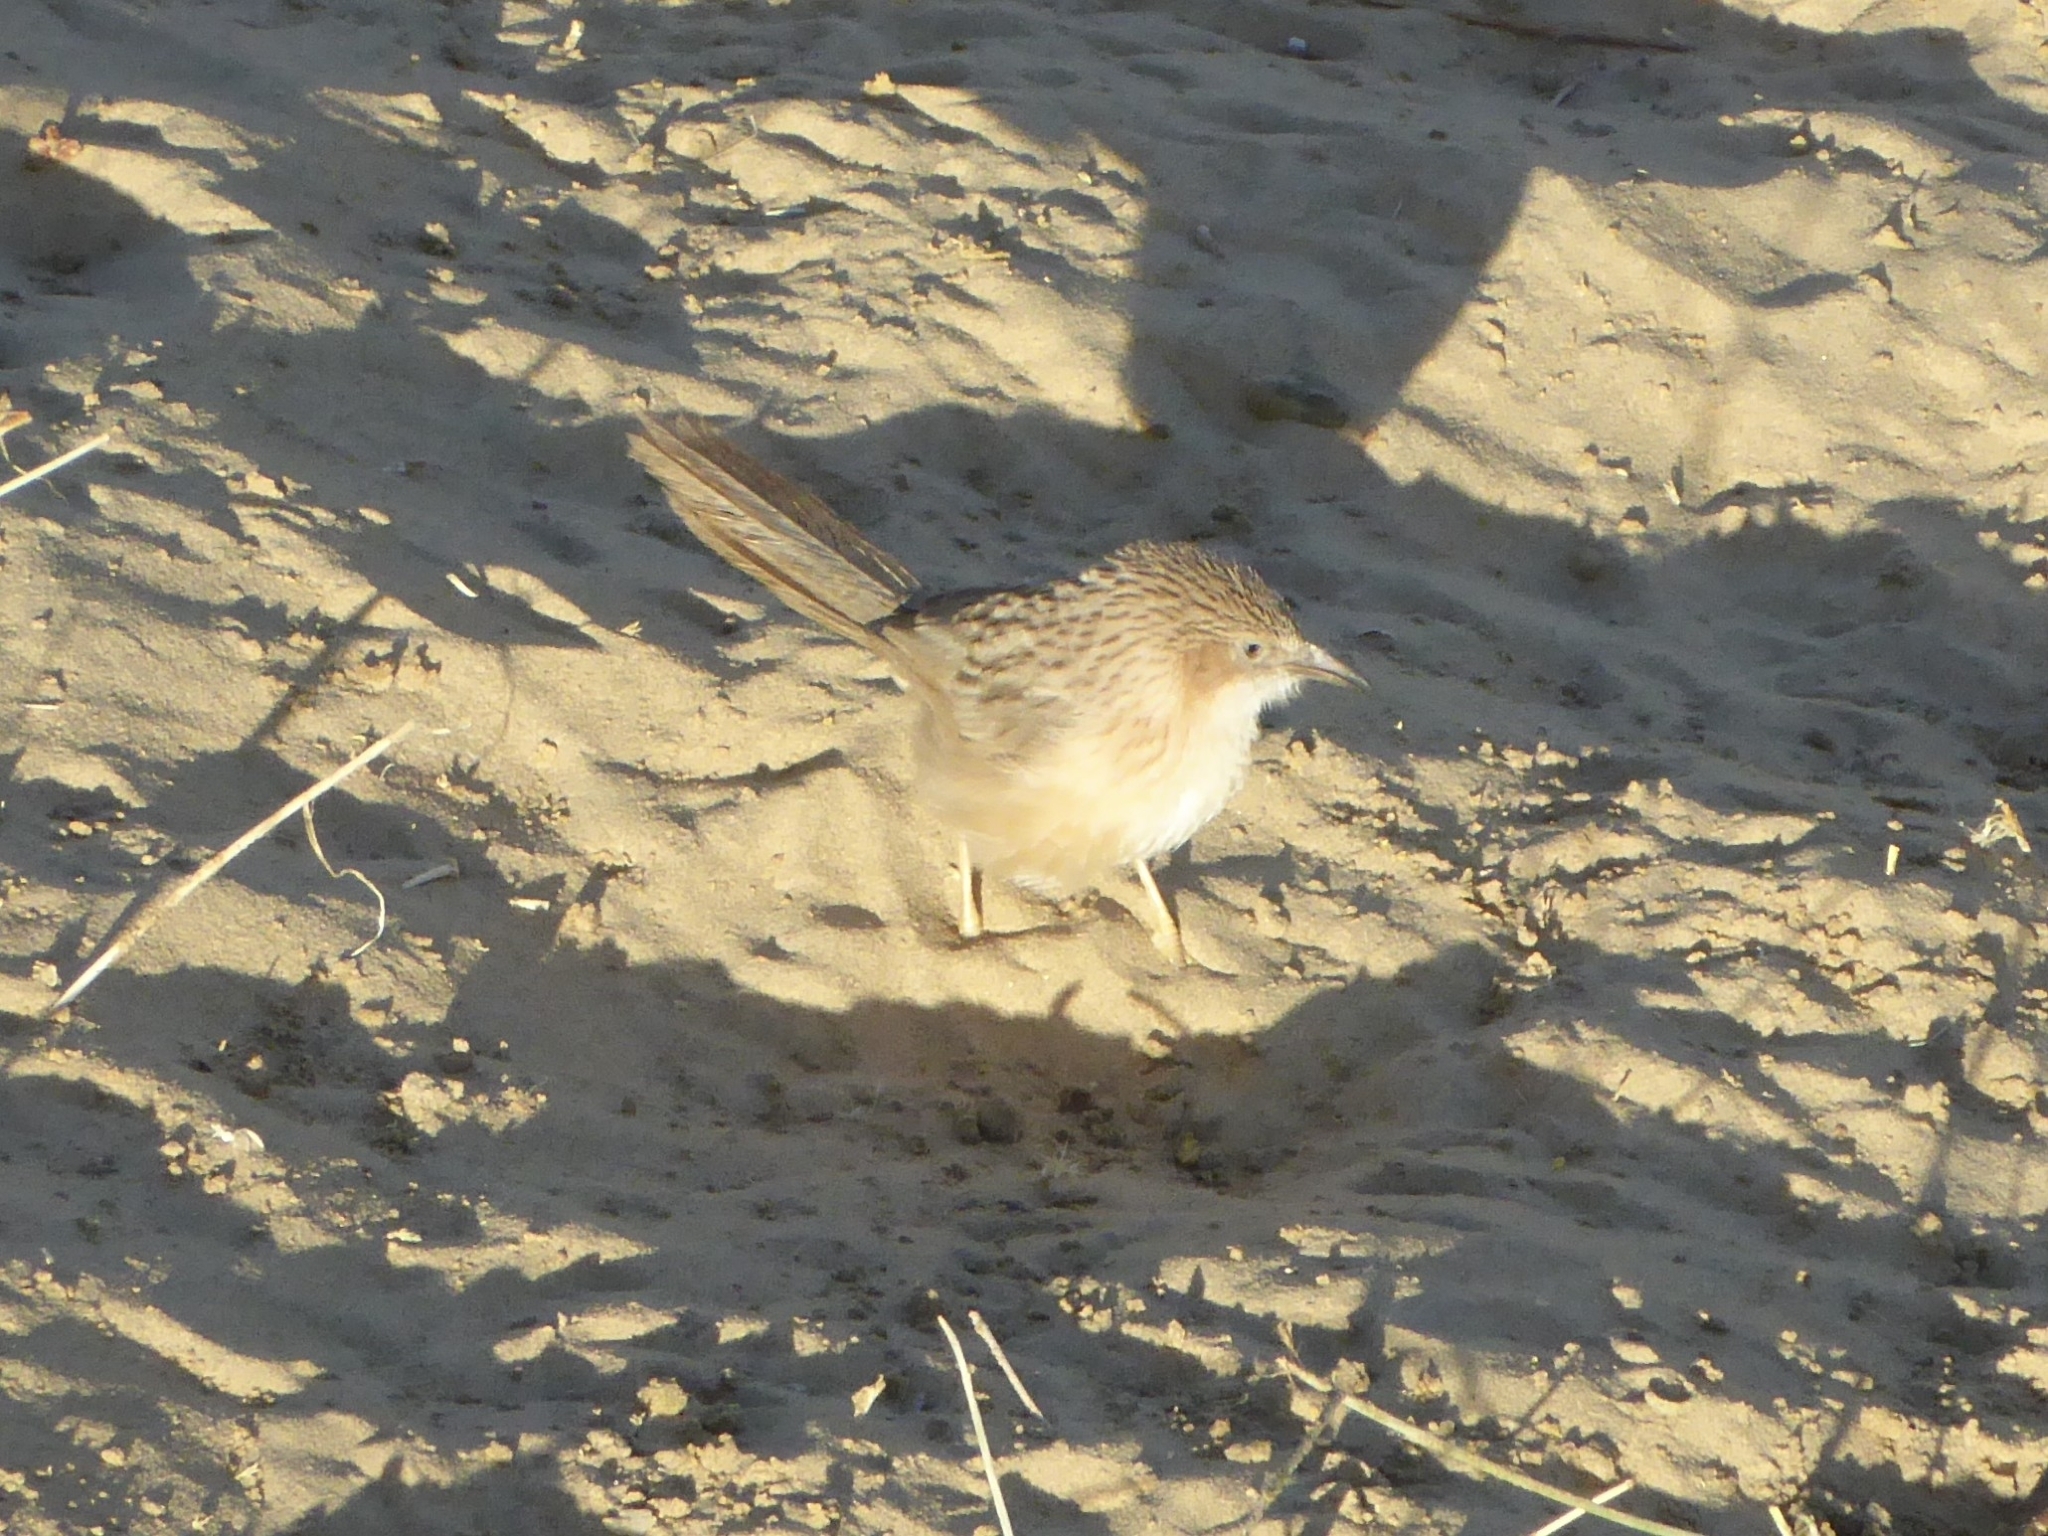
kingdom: Animalia
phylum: Chordata
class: Aves
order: Passeriformes
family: Leiothrichidae
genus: Turdoides
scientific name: Turdoides caudata
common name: Common babbler
